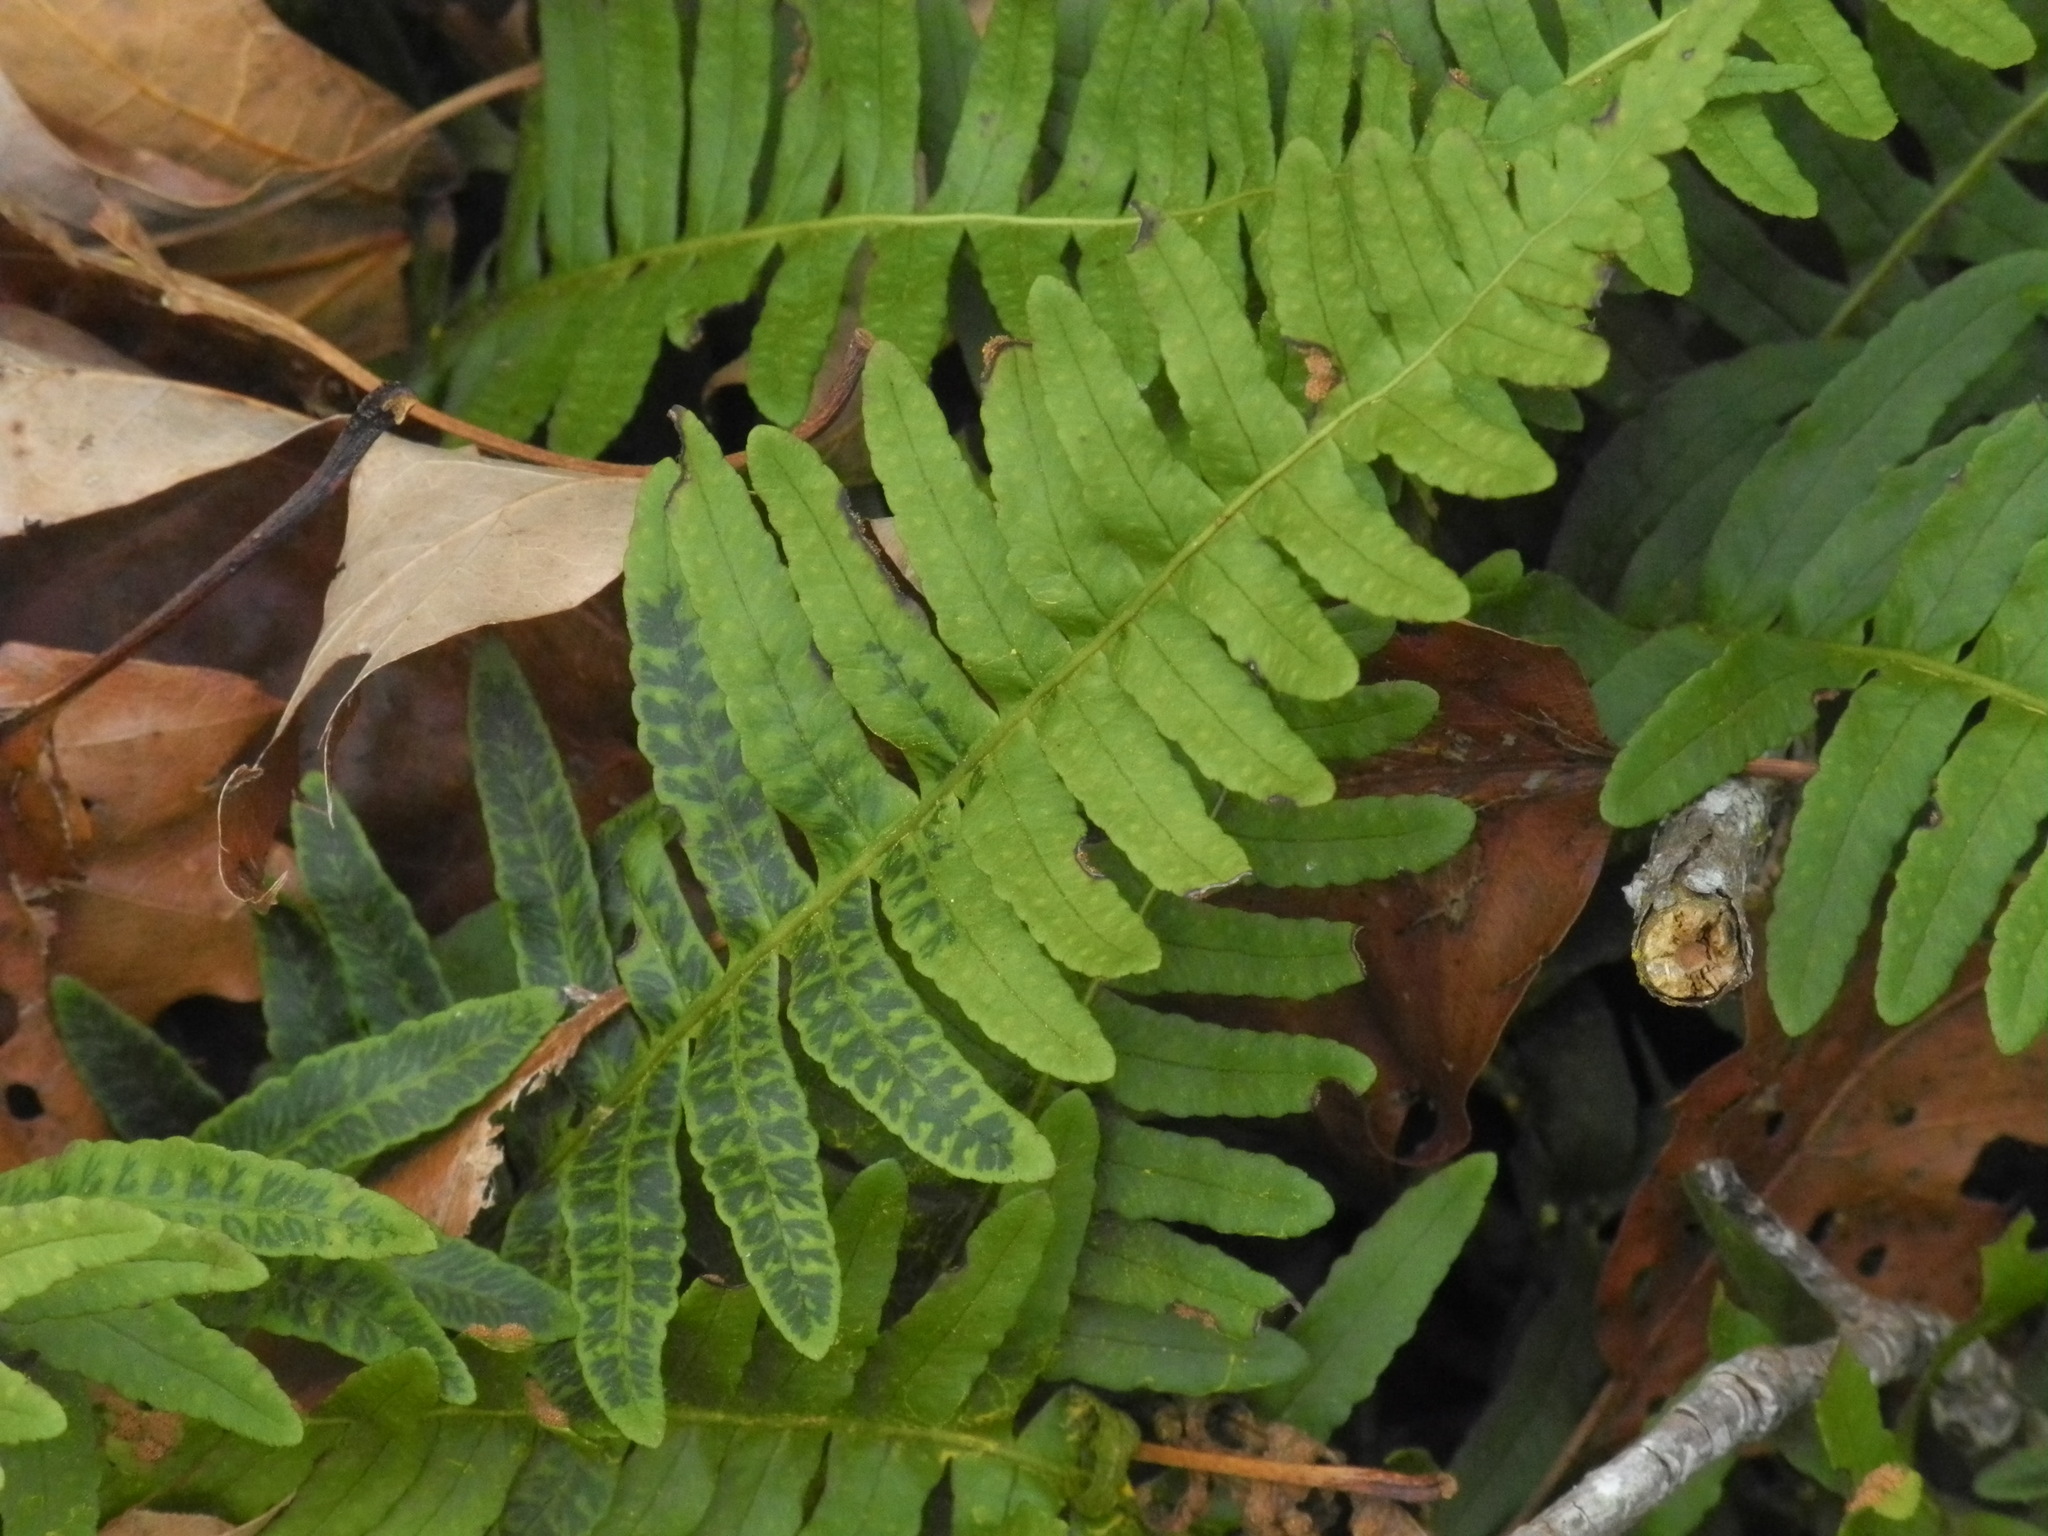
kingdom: Plantae
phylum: Tracheophyta
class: Polypodiopsida
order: Polypodiales
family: Polypodiaceae
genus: Polypodium
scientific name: Polypodium virginianum
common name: American wall fern
